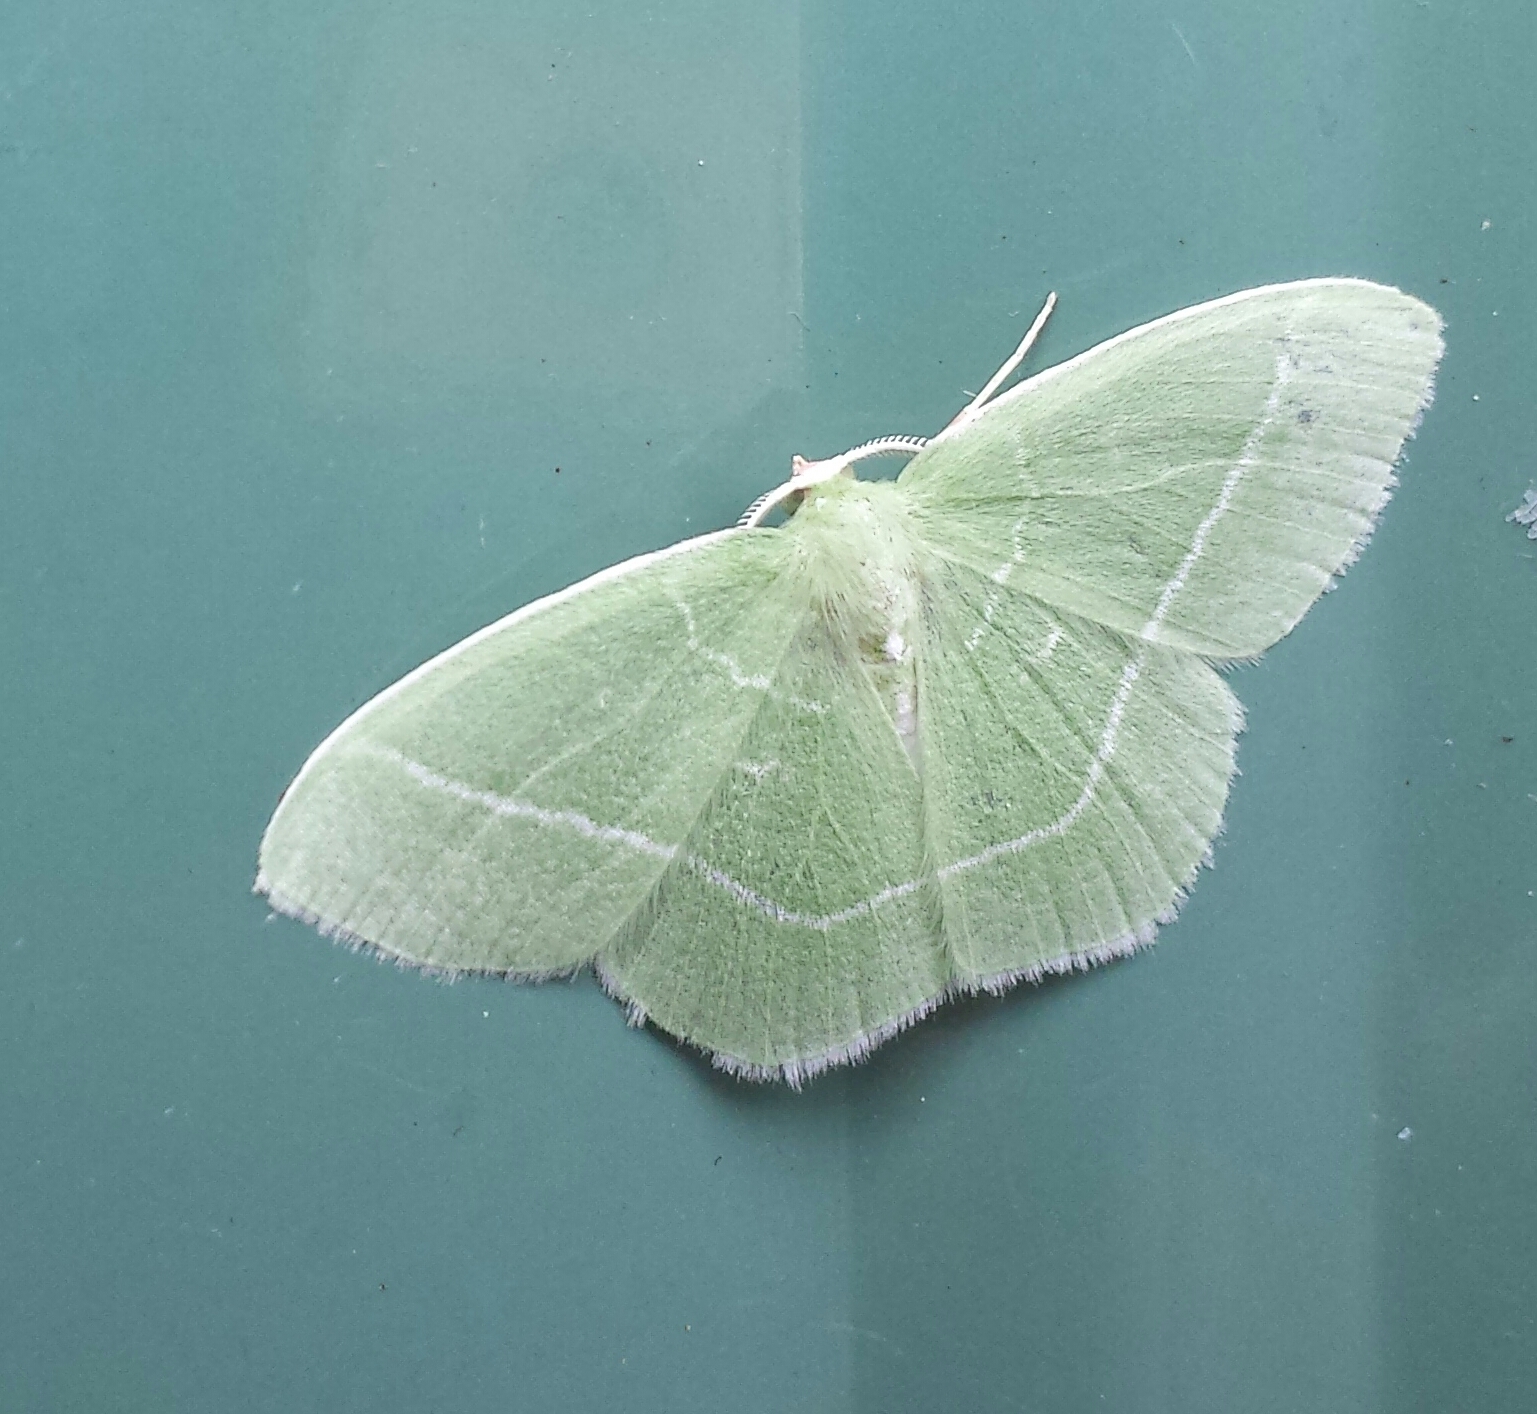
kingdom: Animalia
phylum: Arthropoda
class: Insecta
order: Lepidoptera
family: Geometridae
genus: Nemoria
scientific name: Nemoria mimosaria
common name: White-fringed emerald
